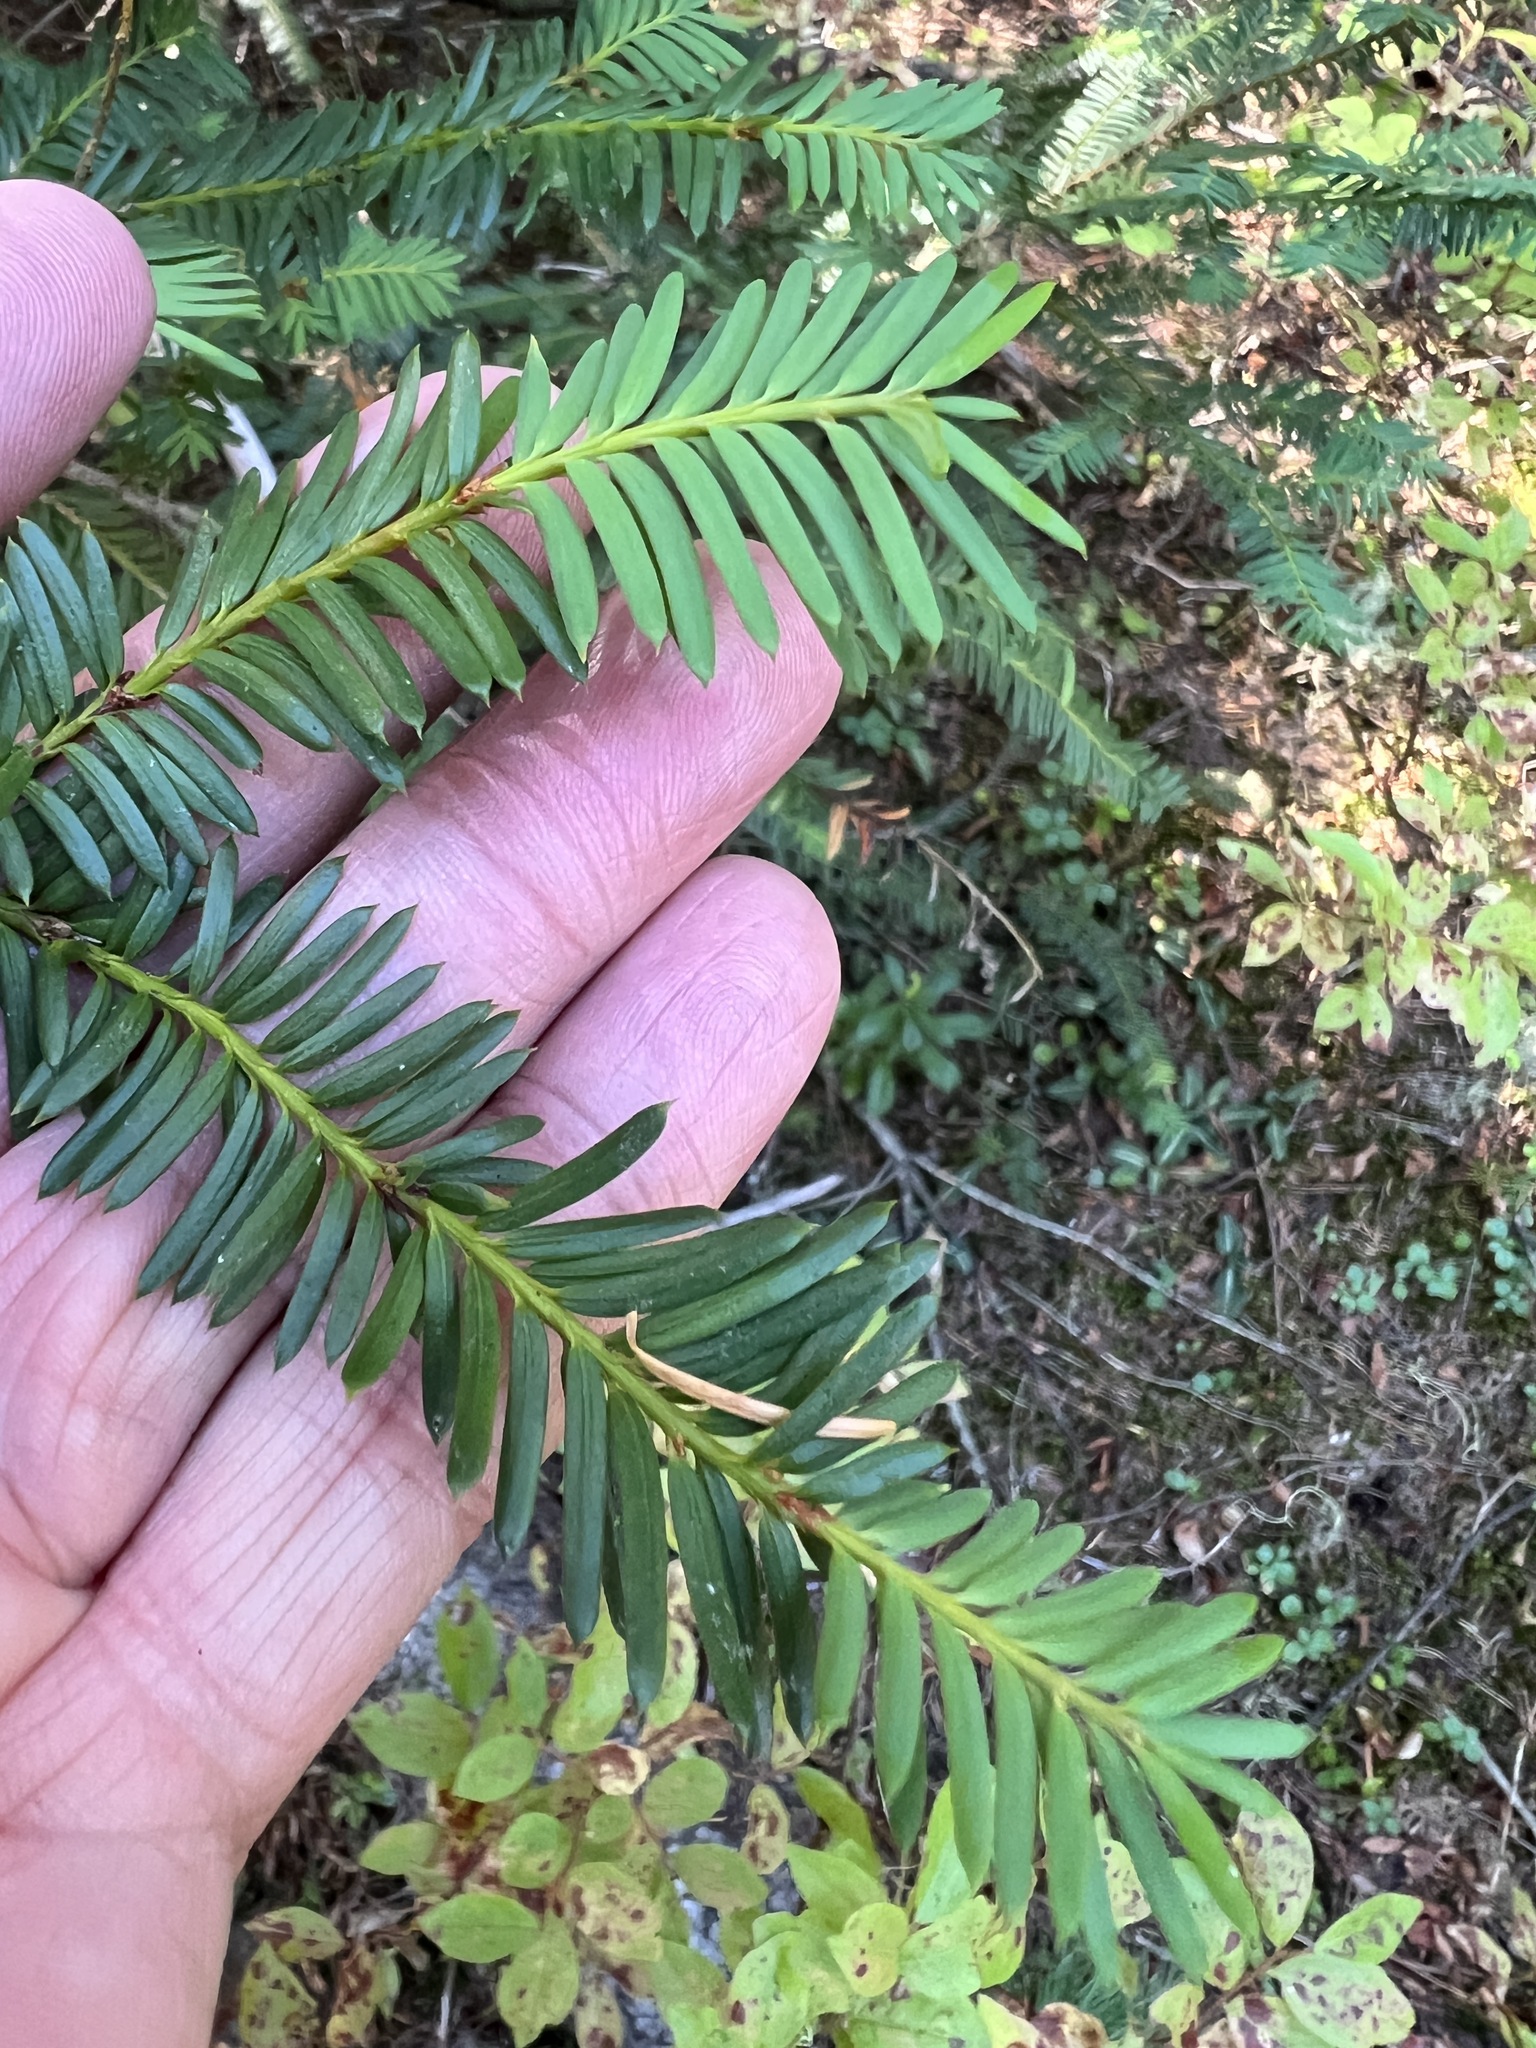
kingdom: Plantae
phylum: Tracheophyta
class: Pinopsida
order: Pinales
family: Taxaceae
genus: Taxus
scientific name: Taxus brevifolia
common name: Pacific yew
